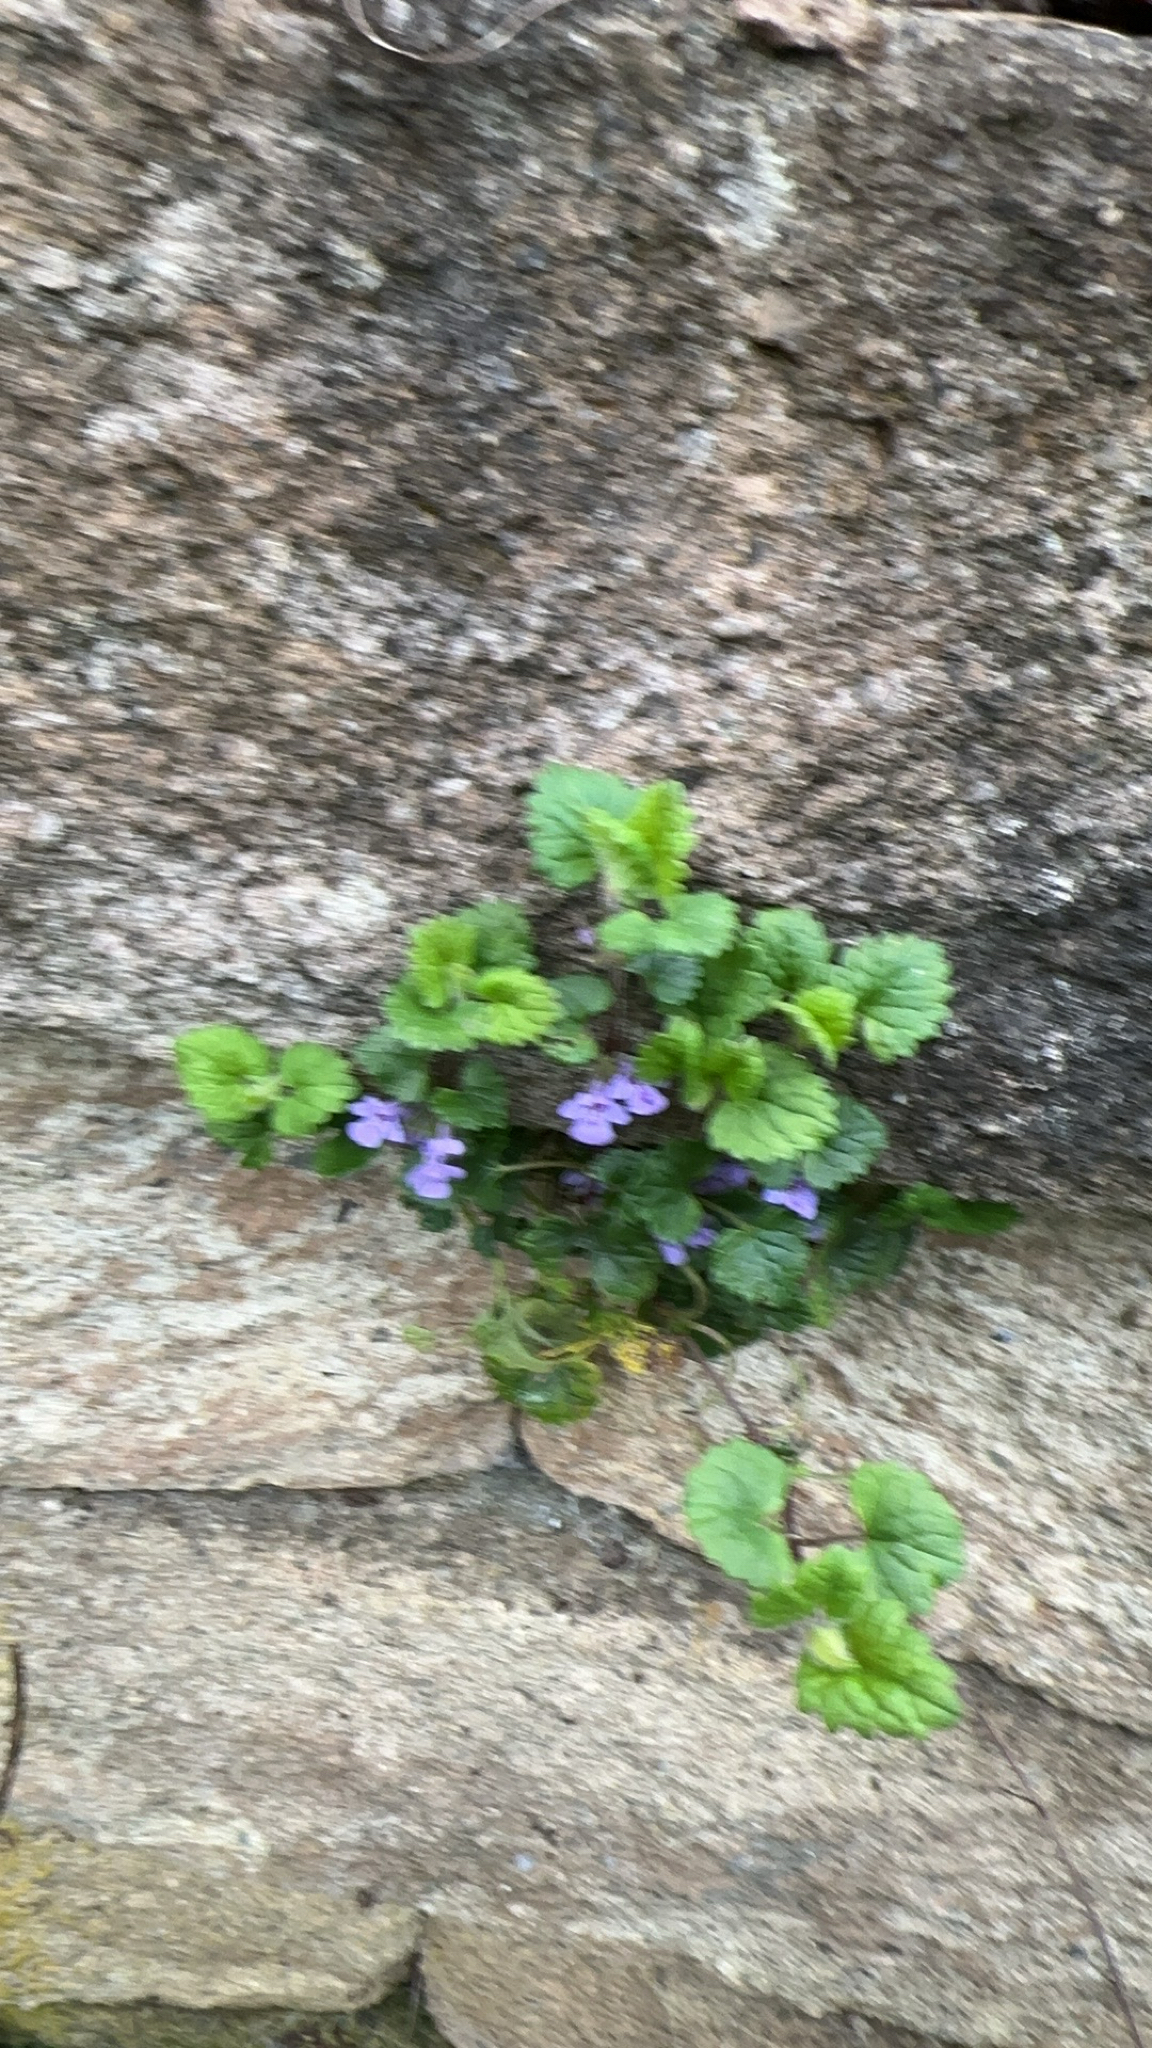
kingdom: Plantae
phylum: Tracheophyta
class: Magnoliopsida
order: Lamiales
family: Lamiaceae
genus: Glechoma
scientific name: Glechoma hederacea
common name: Ground ivy
